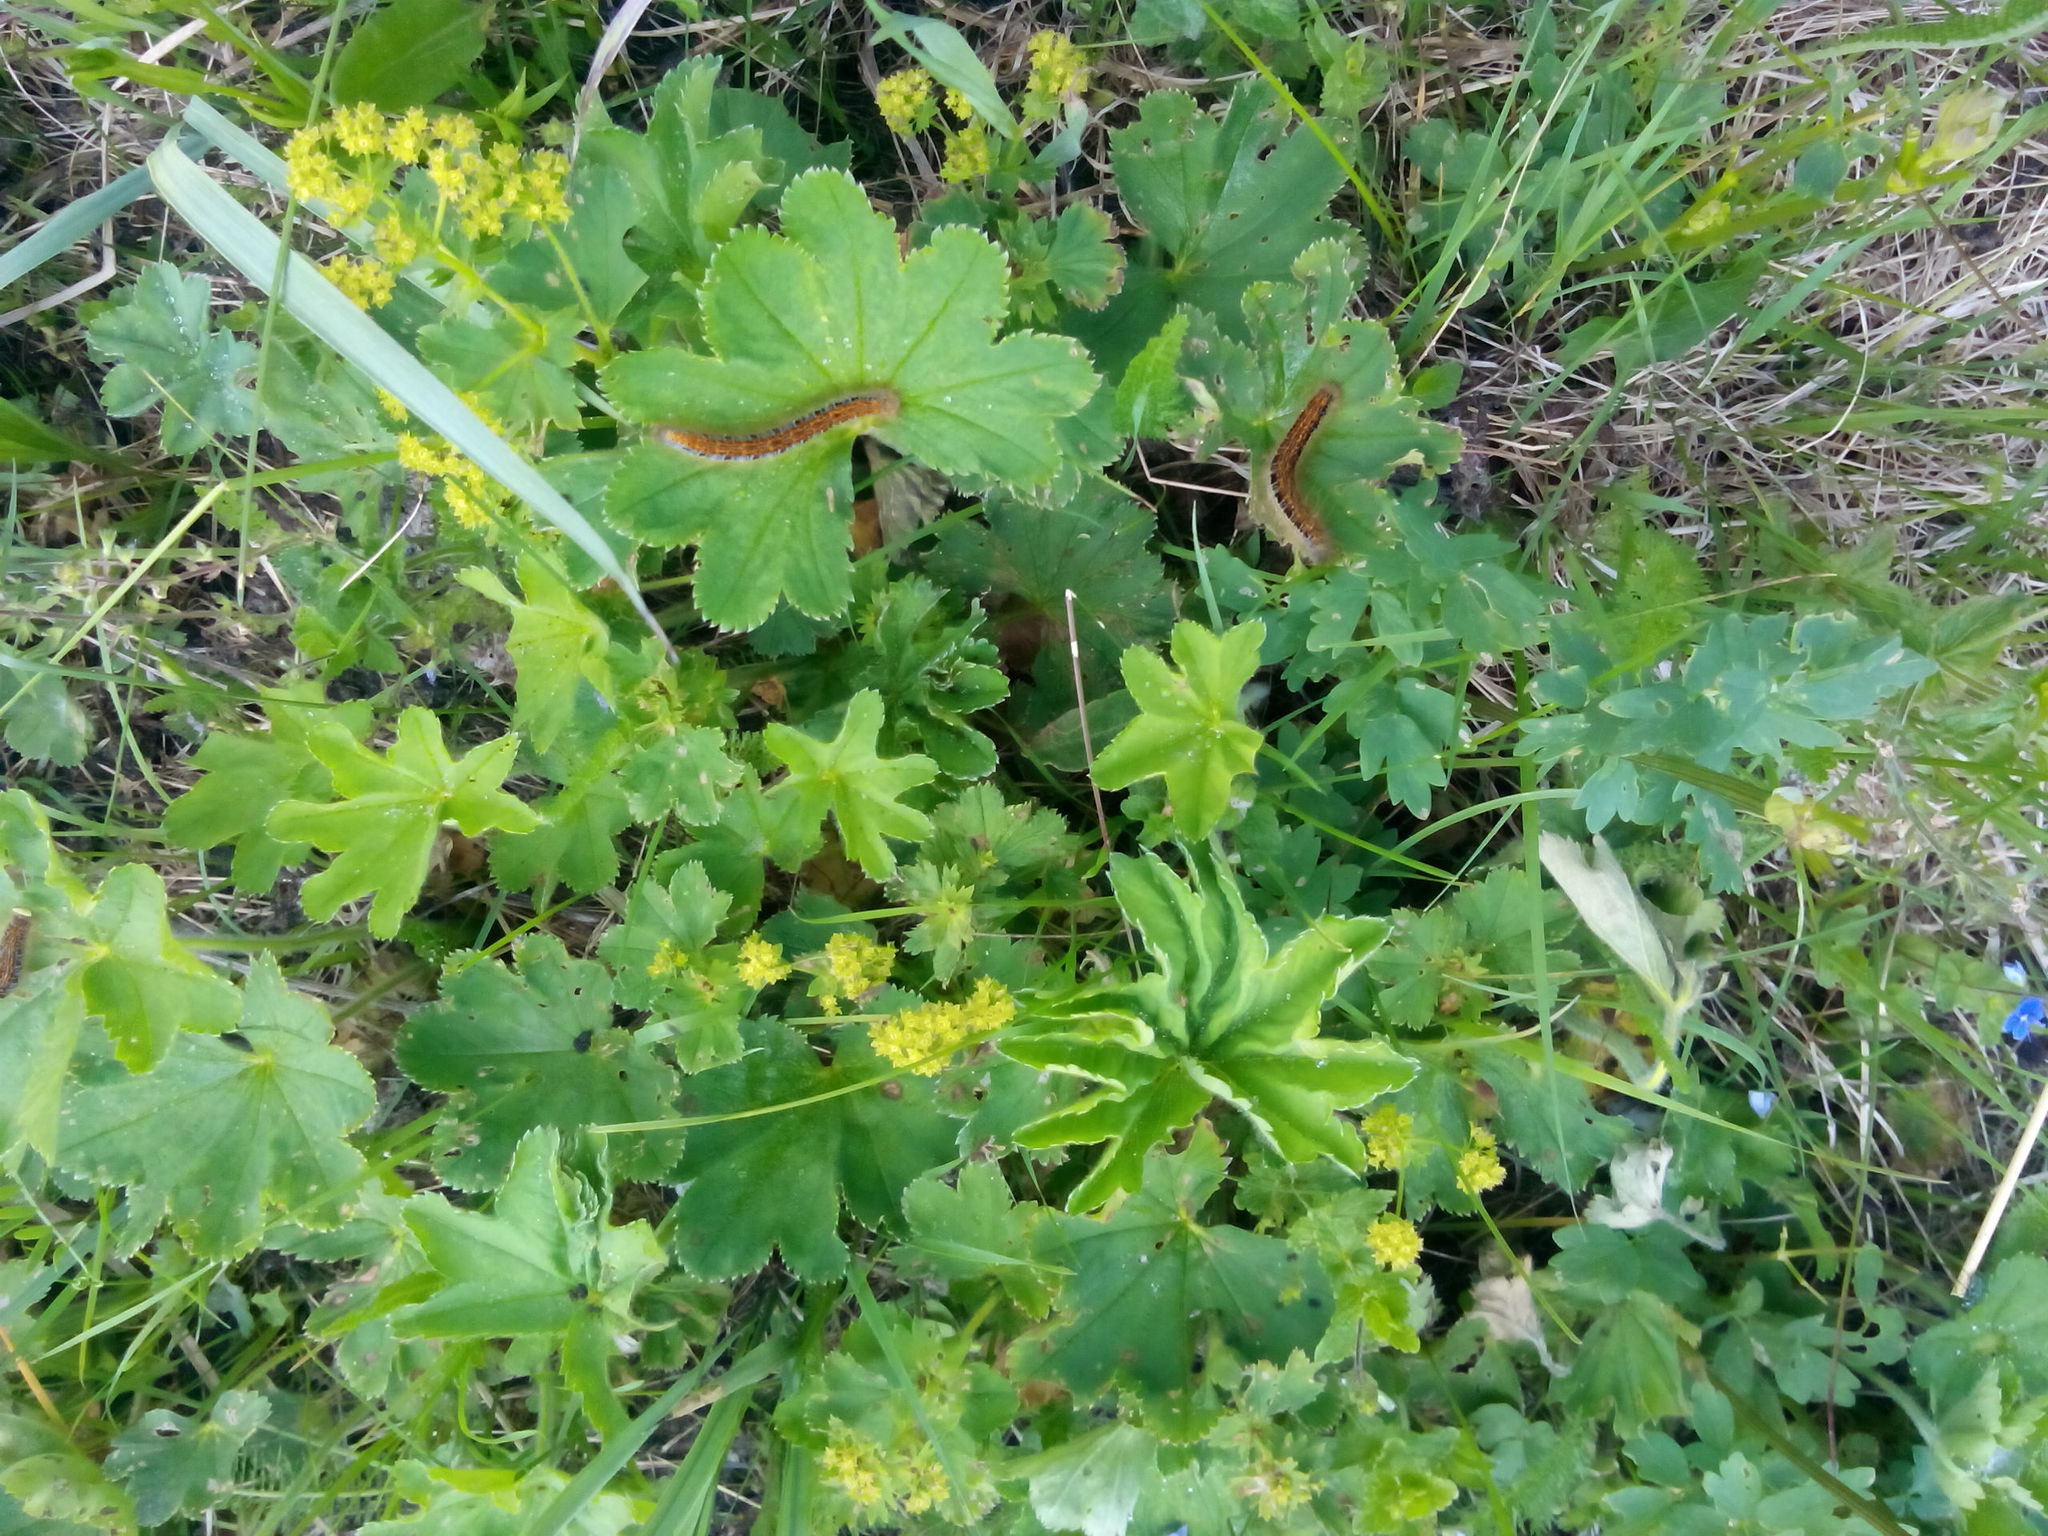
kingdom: Animalia
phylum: Arthropoda
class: Insecta
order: Lepidoptera
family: Lasiocampidae
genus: Malacosoma
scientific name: Malacosoma castrense
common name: Ground lackey
